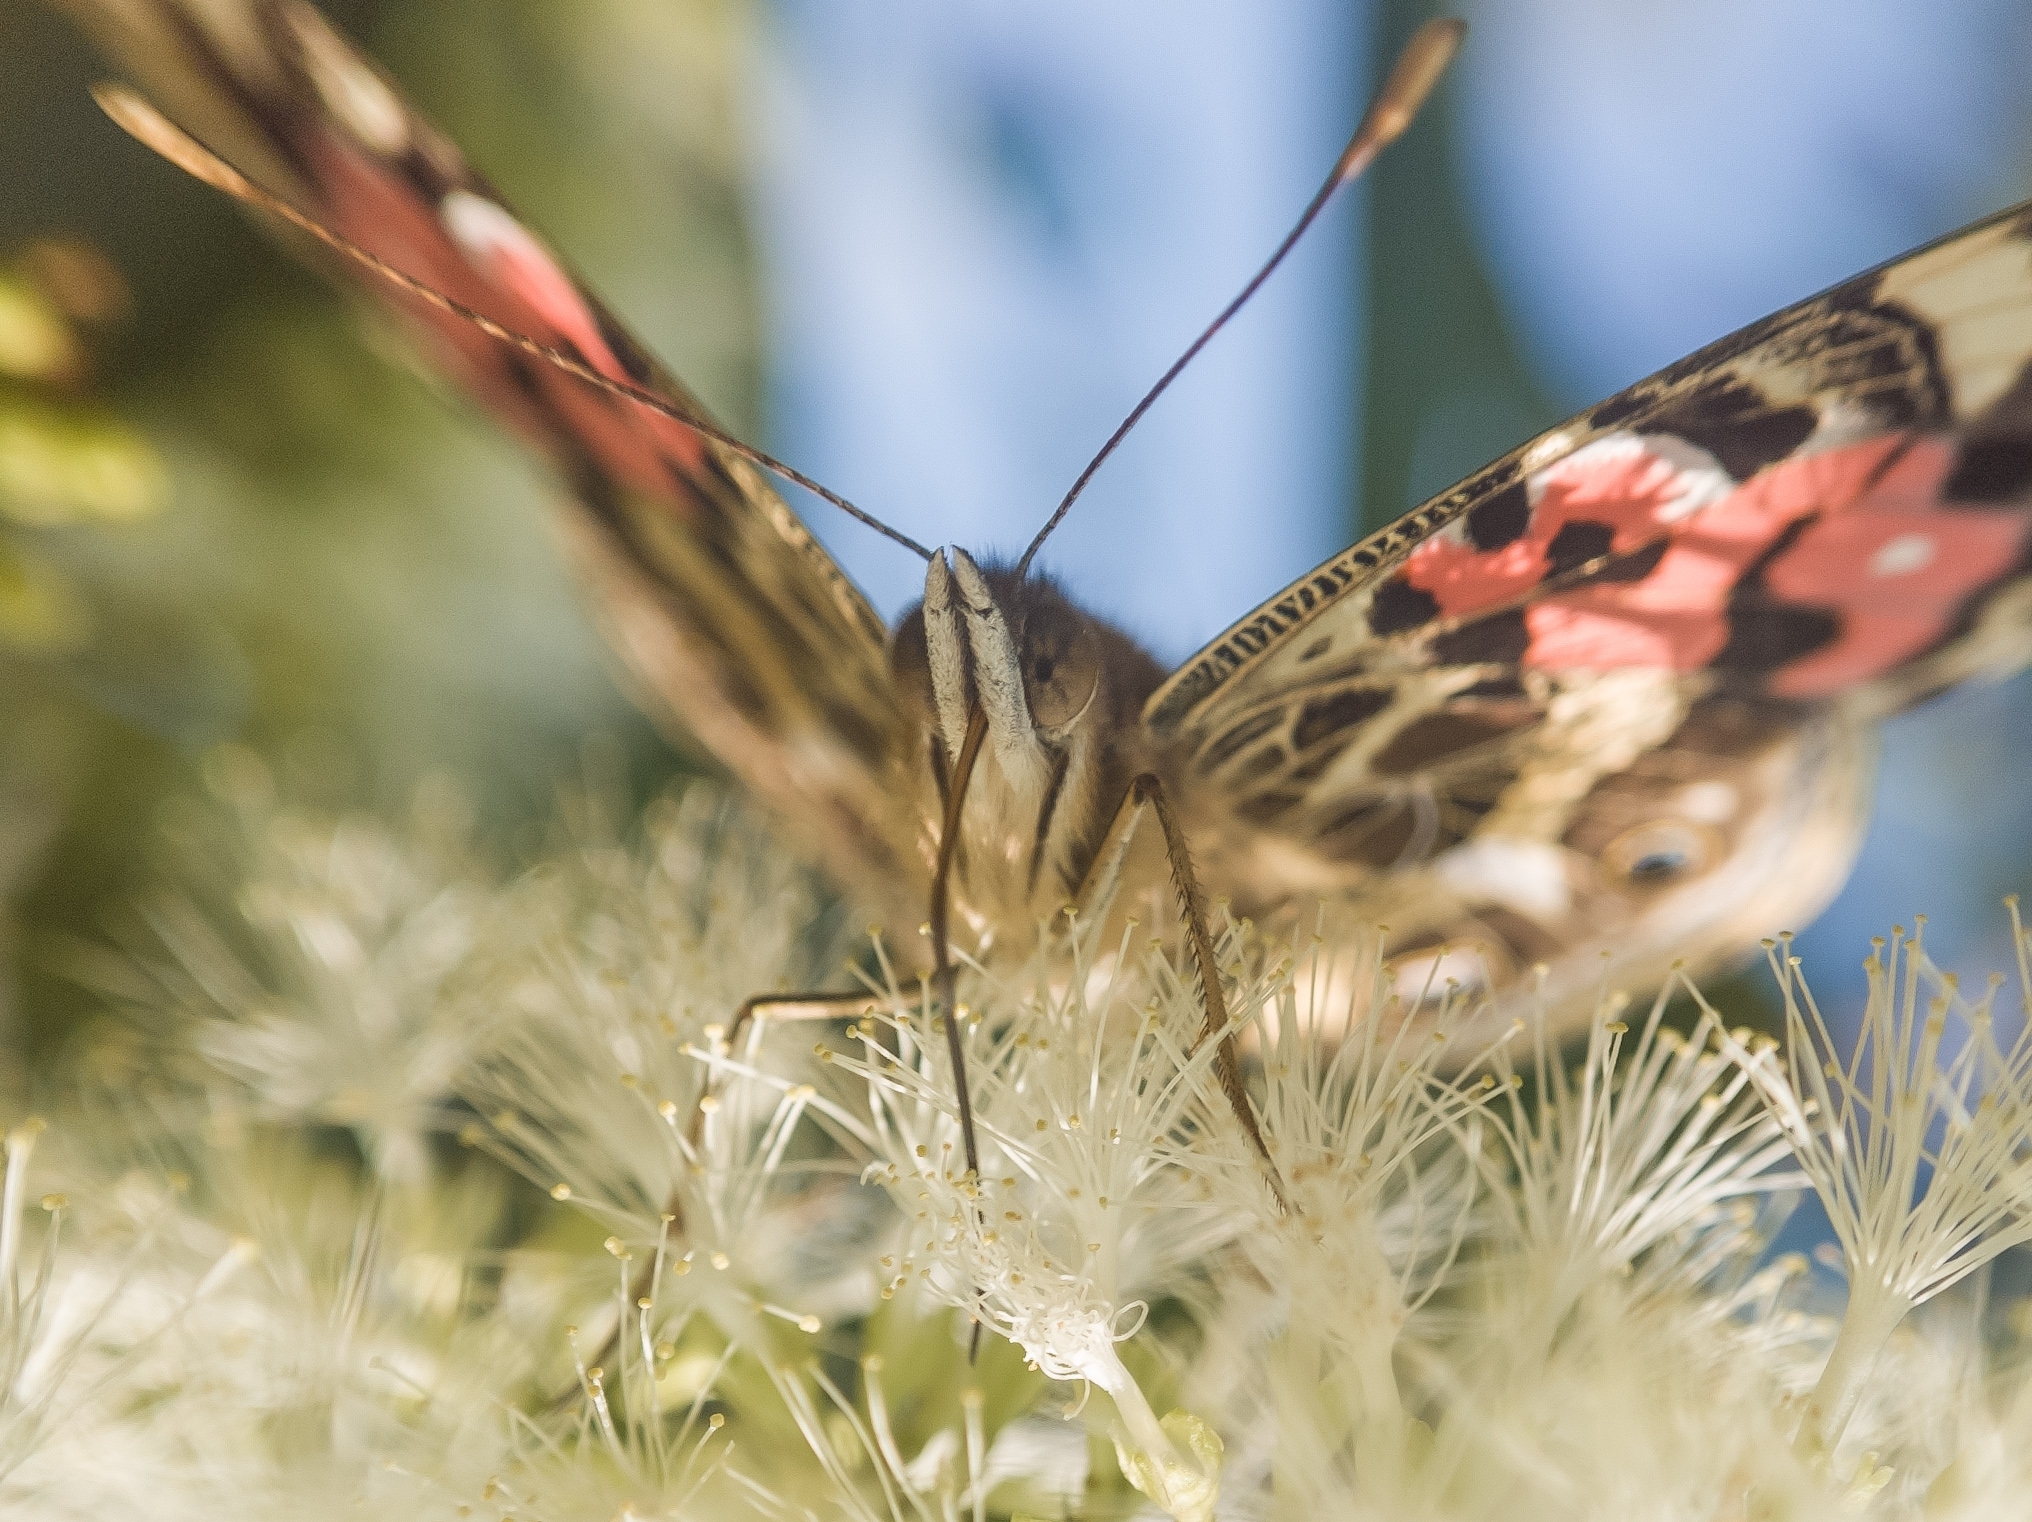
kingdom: Animalia
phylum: Arthropoda
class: Insecta
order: Lepidoptera
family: Nymphalidae
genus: Vanessa
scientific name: Vanessa braziliensis
